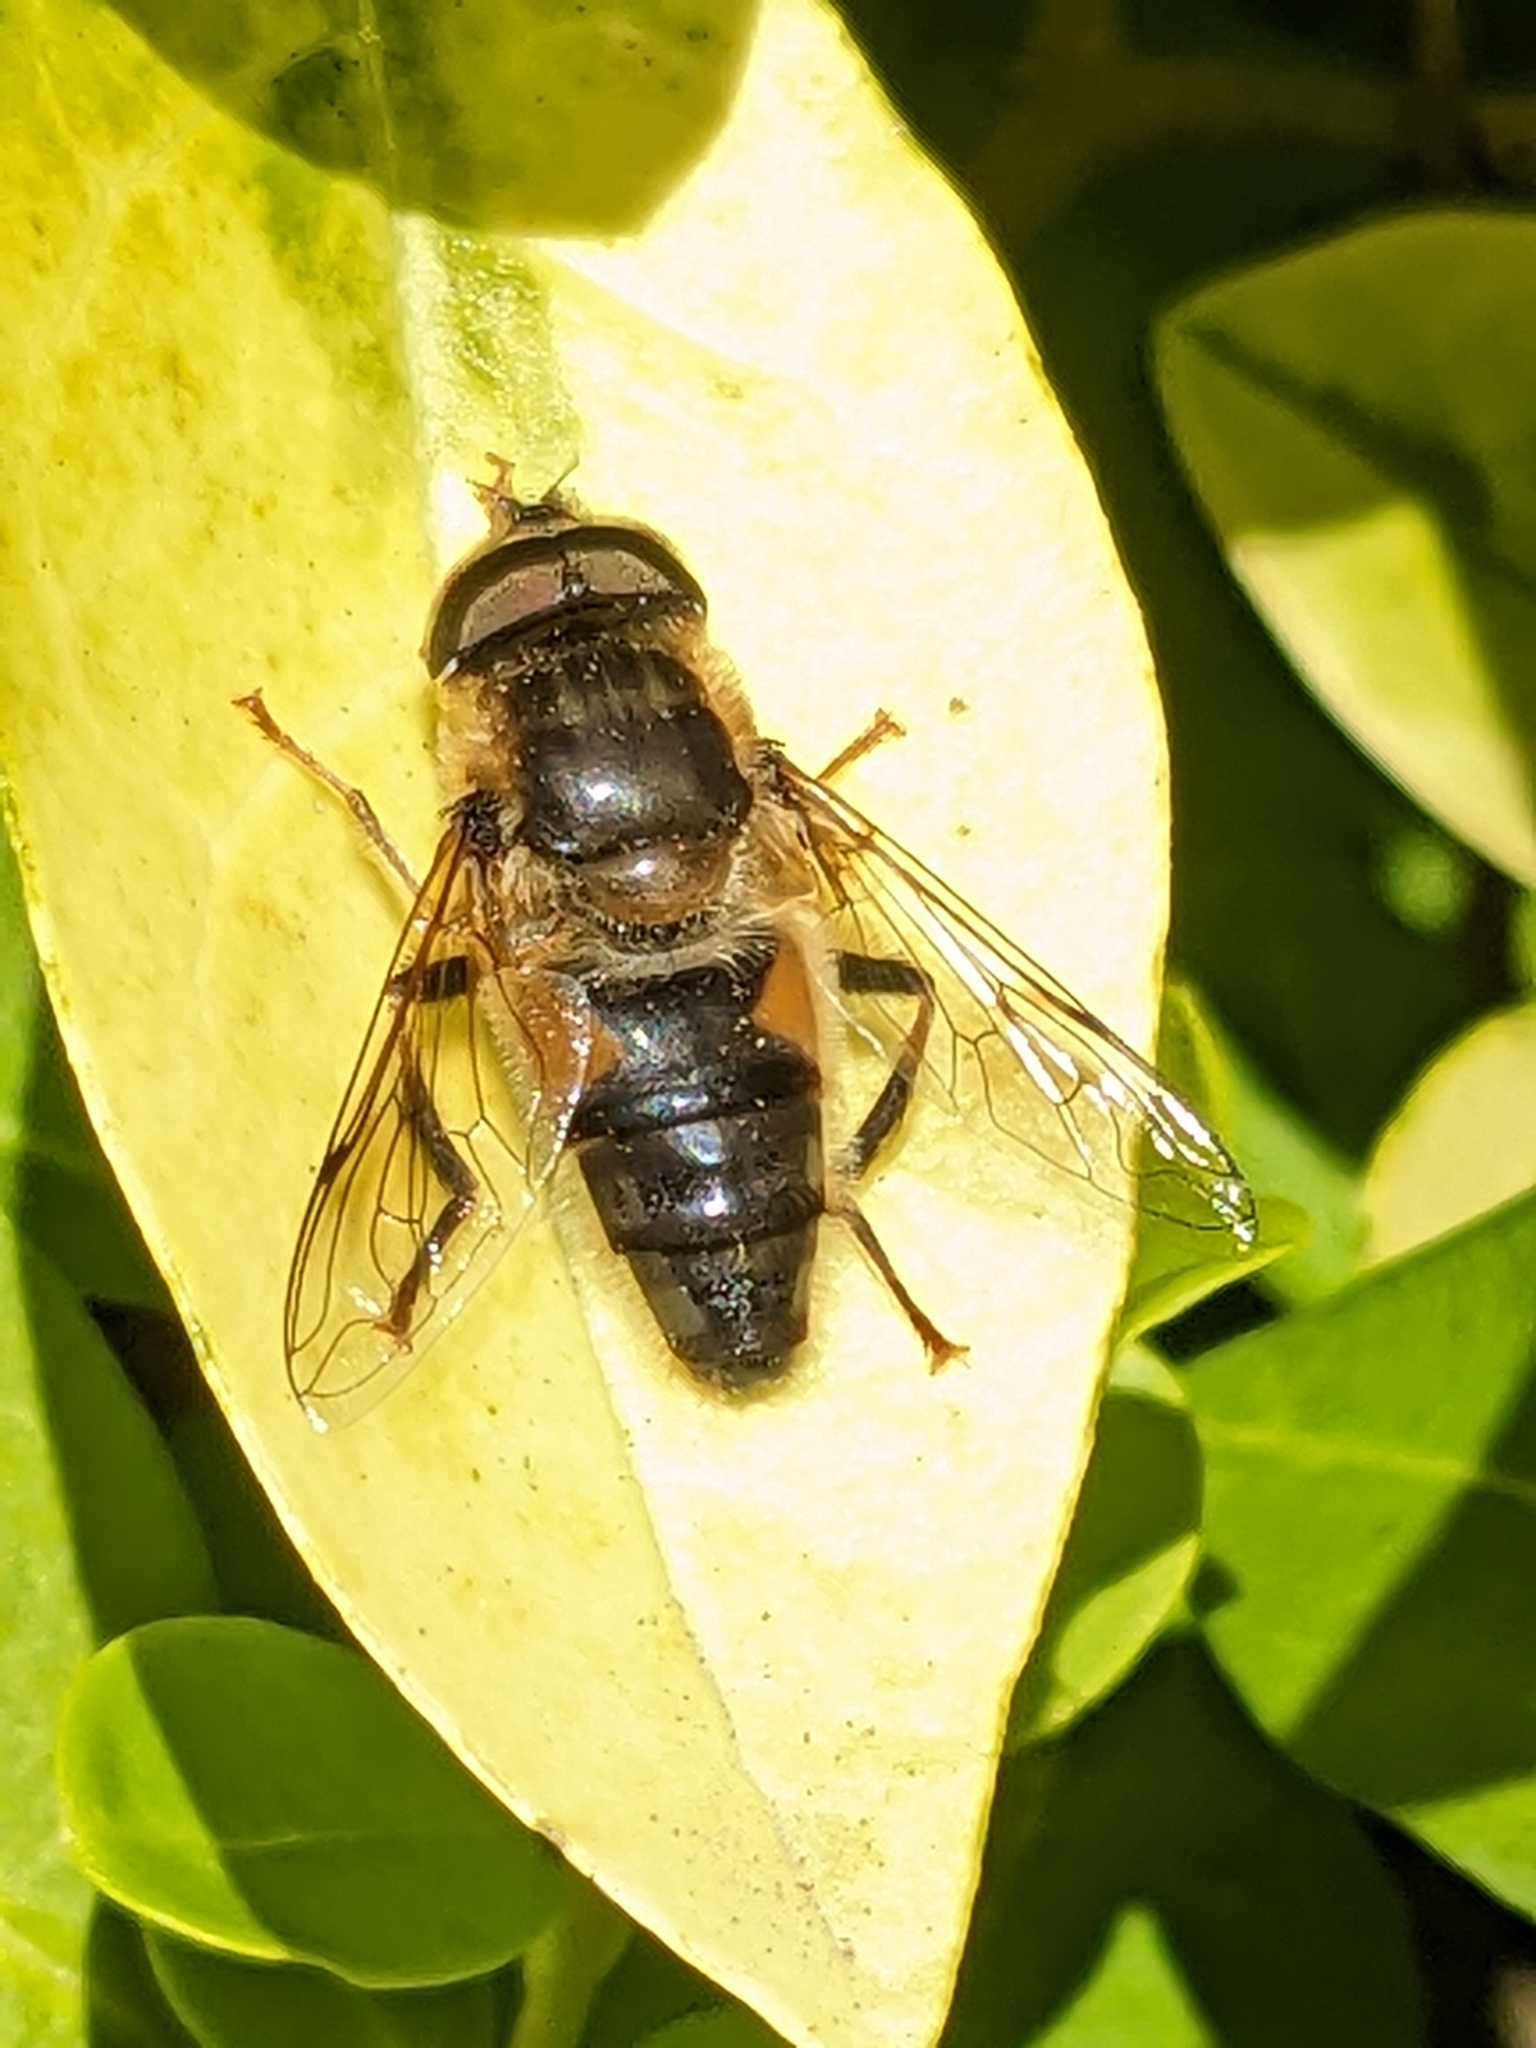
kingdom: Animalia
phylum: Arthropoda
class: Insecta
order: Diptera
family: Syrphidae
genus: Eristalis
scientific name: Eristalis pertinax
